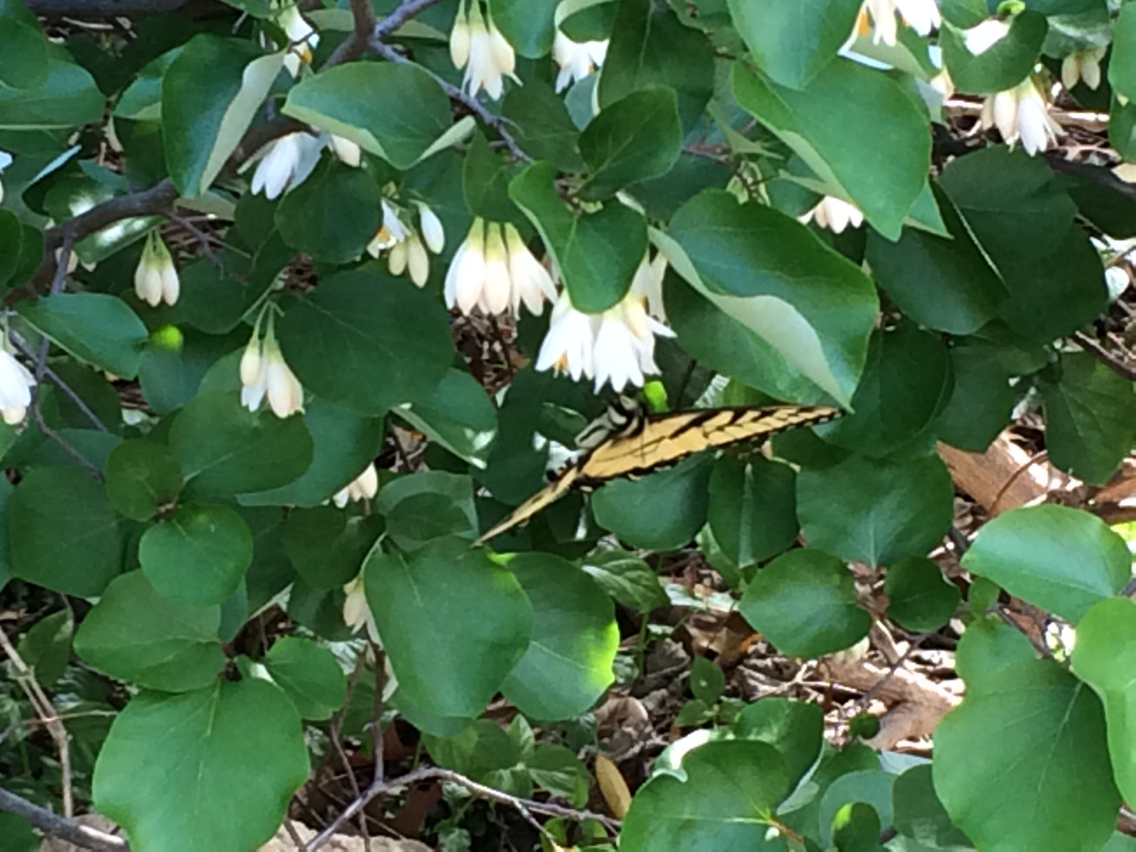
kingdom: Animalia
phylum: Arthropoda
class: Insecta
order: Lepidoptera
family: Papilionidae
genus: Papilio
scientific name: Papilio glaucus
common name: Tiger swallowtail
